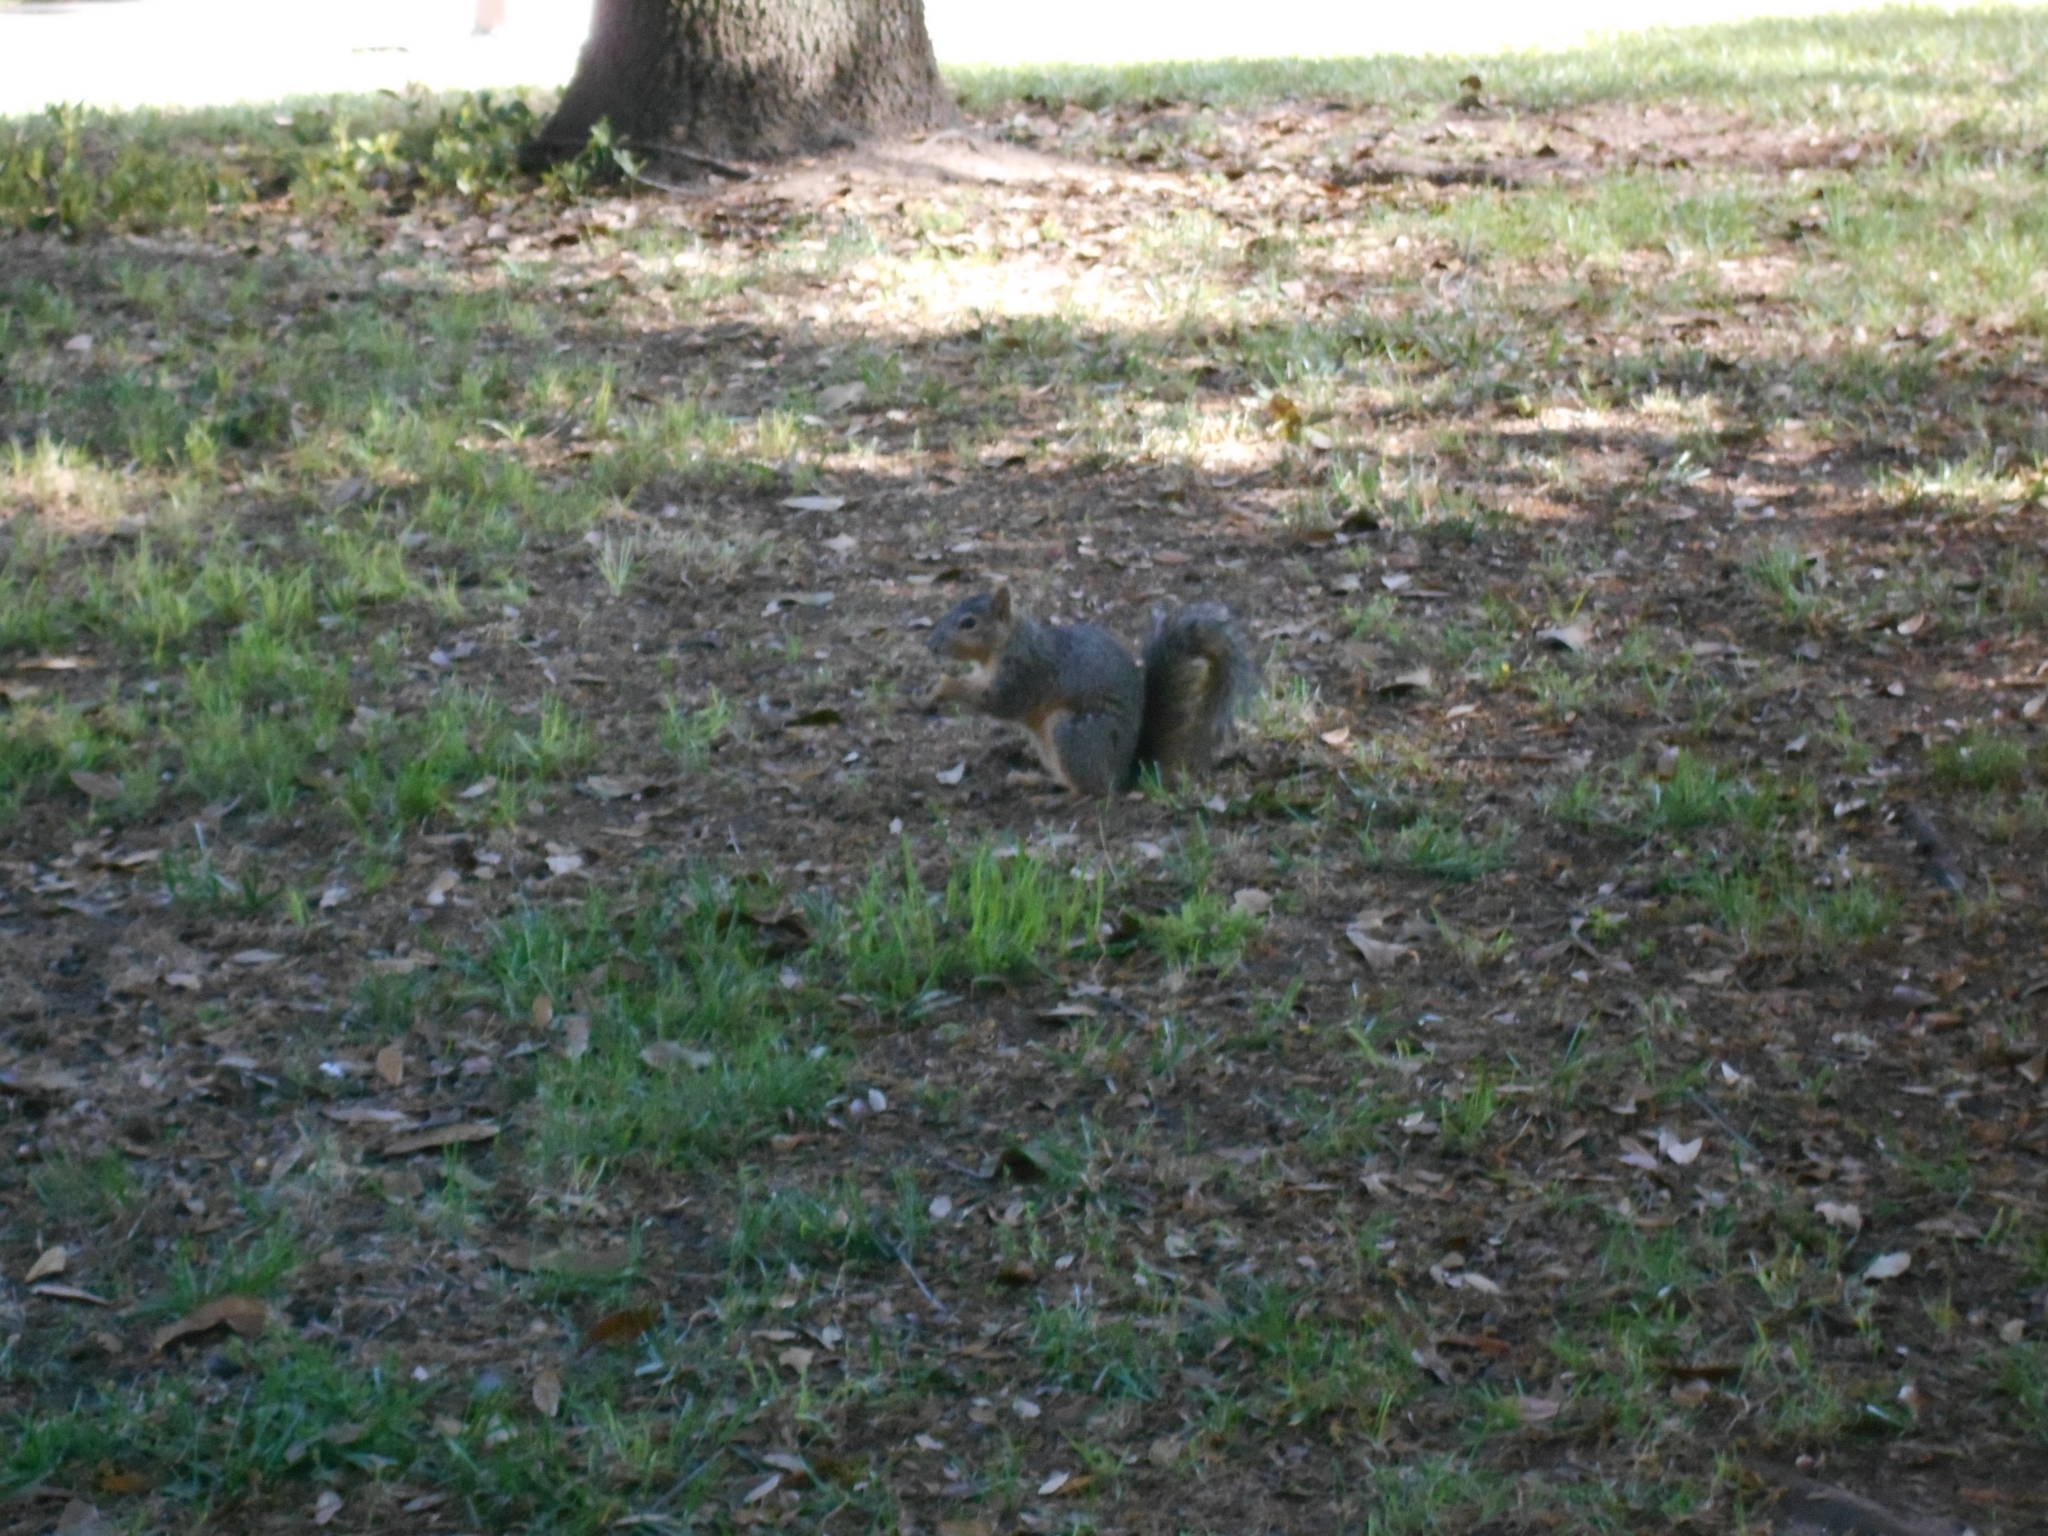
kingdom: Animalia
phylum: Chordata
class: Mammalia
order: Rodentia
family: Sciuridae
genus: Sciurus
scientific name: Sciurus niger
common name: Fox squirrel
